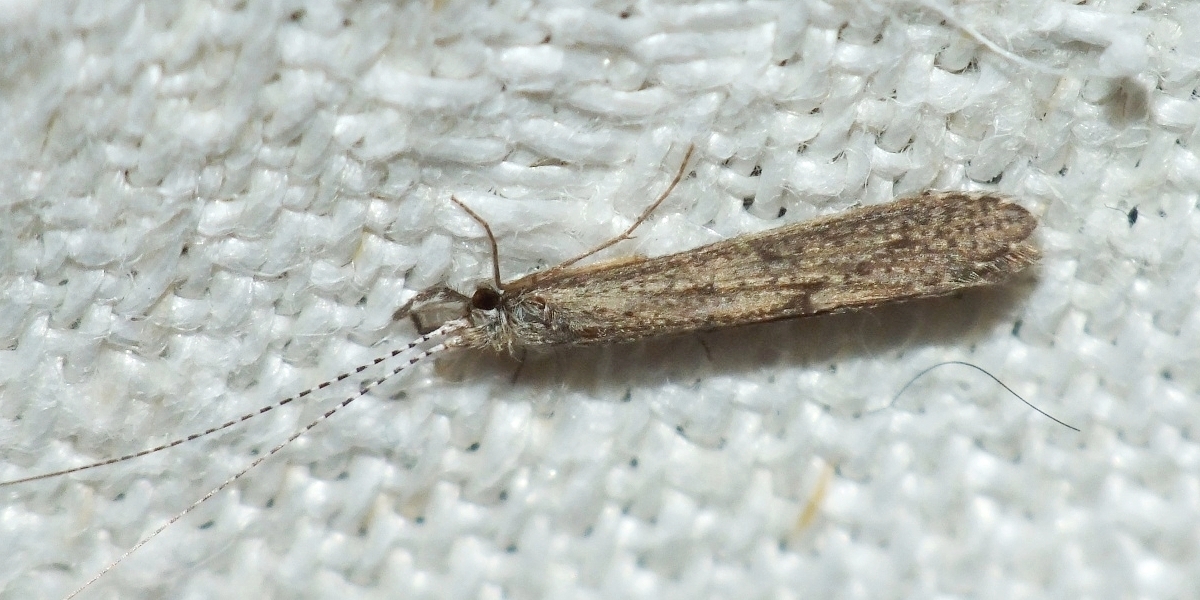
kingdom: Animalia
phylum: Arthropoda
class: Insecta
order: Trichoptera
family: Leptoceridae
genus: Leptocerus
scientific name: Leptocerus tineiformis
